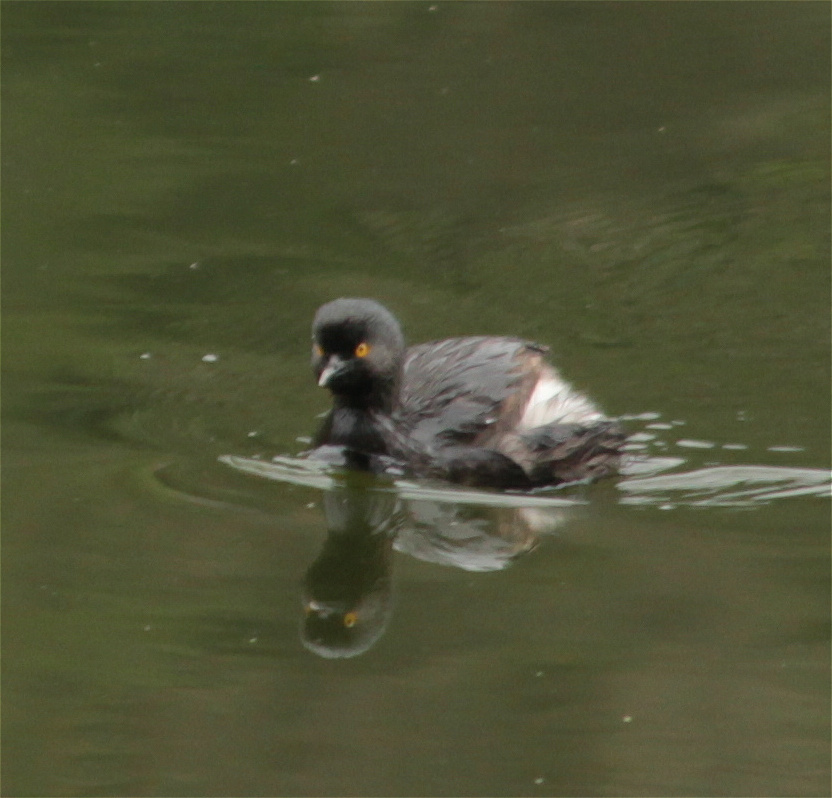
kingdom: Animalia
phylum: Chordata
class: Aves
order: Podicipediformes
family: Podicipedidae
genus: Tachybaptus
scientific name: Tachybaptus dominicus
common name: Least grebe
